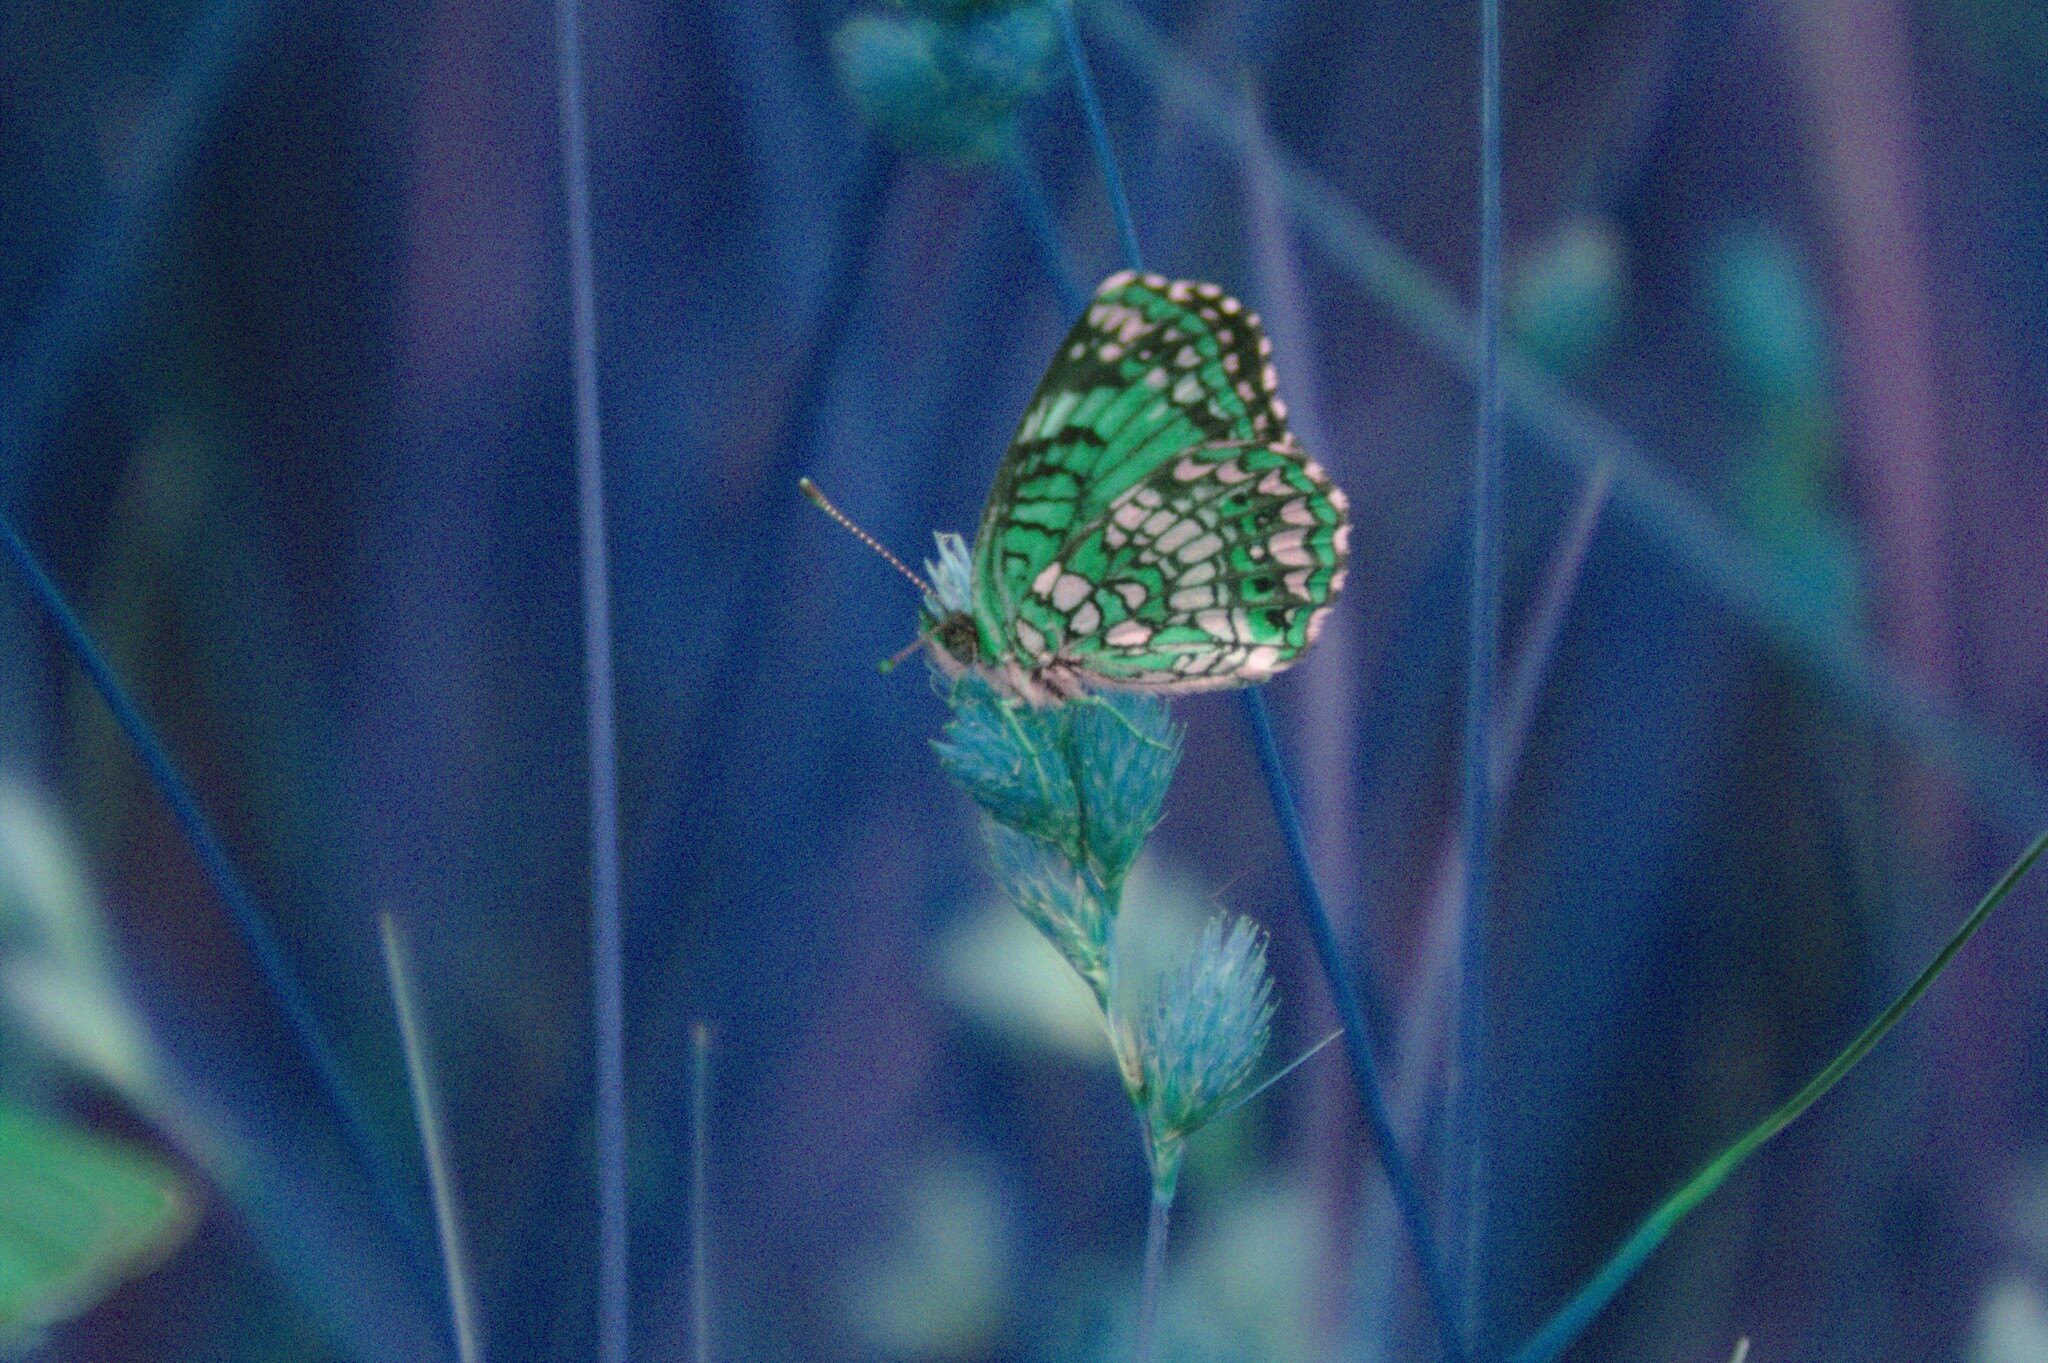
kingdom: Animalia
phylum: Arthropoda
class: Insecta
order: Lepidoptera
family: Nymphalidae
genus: Chlosyne
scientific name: Chlosyne harrisii
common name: Harris's checkerspot
